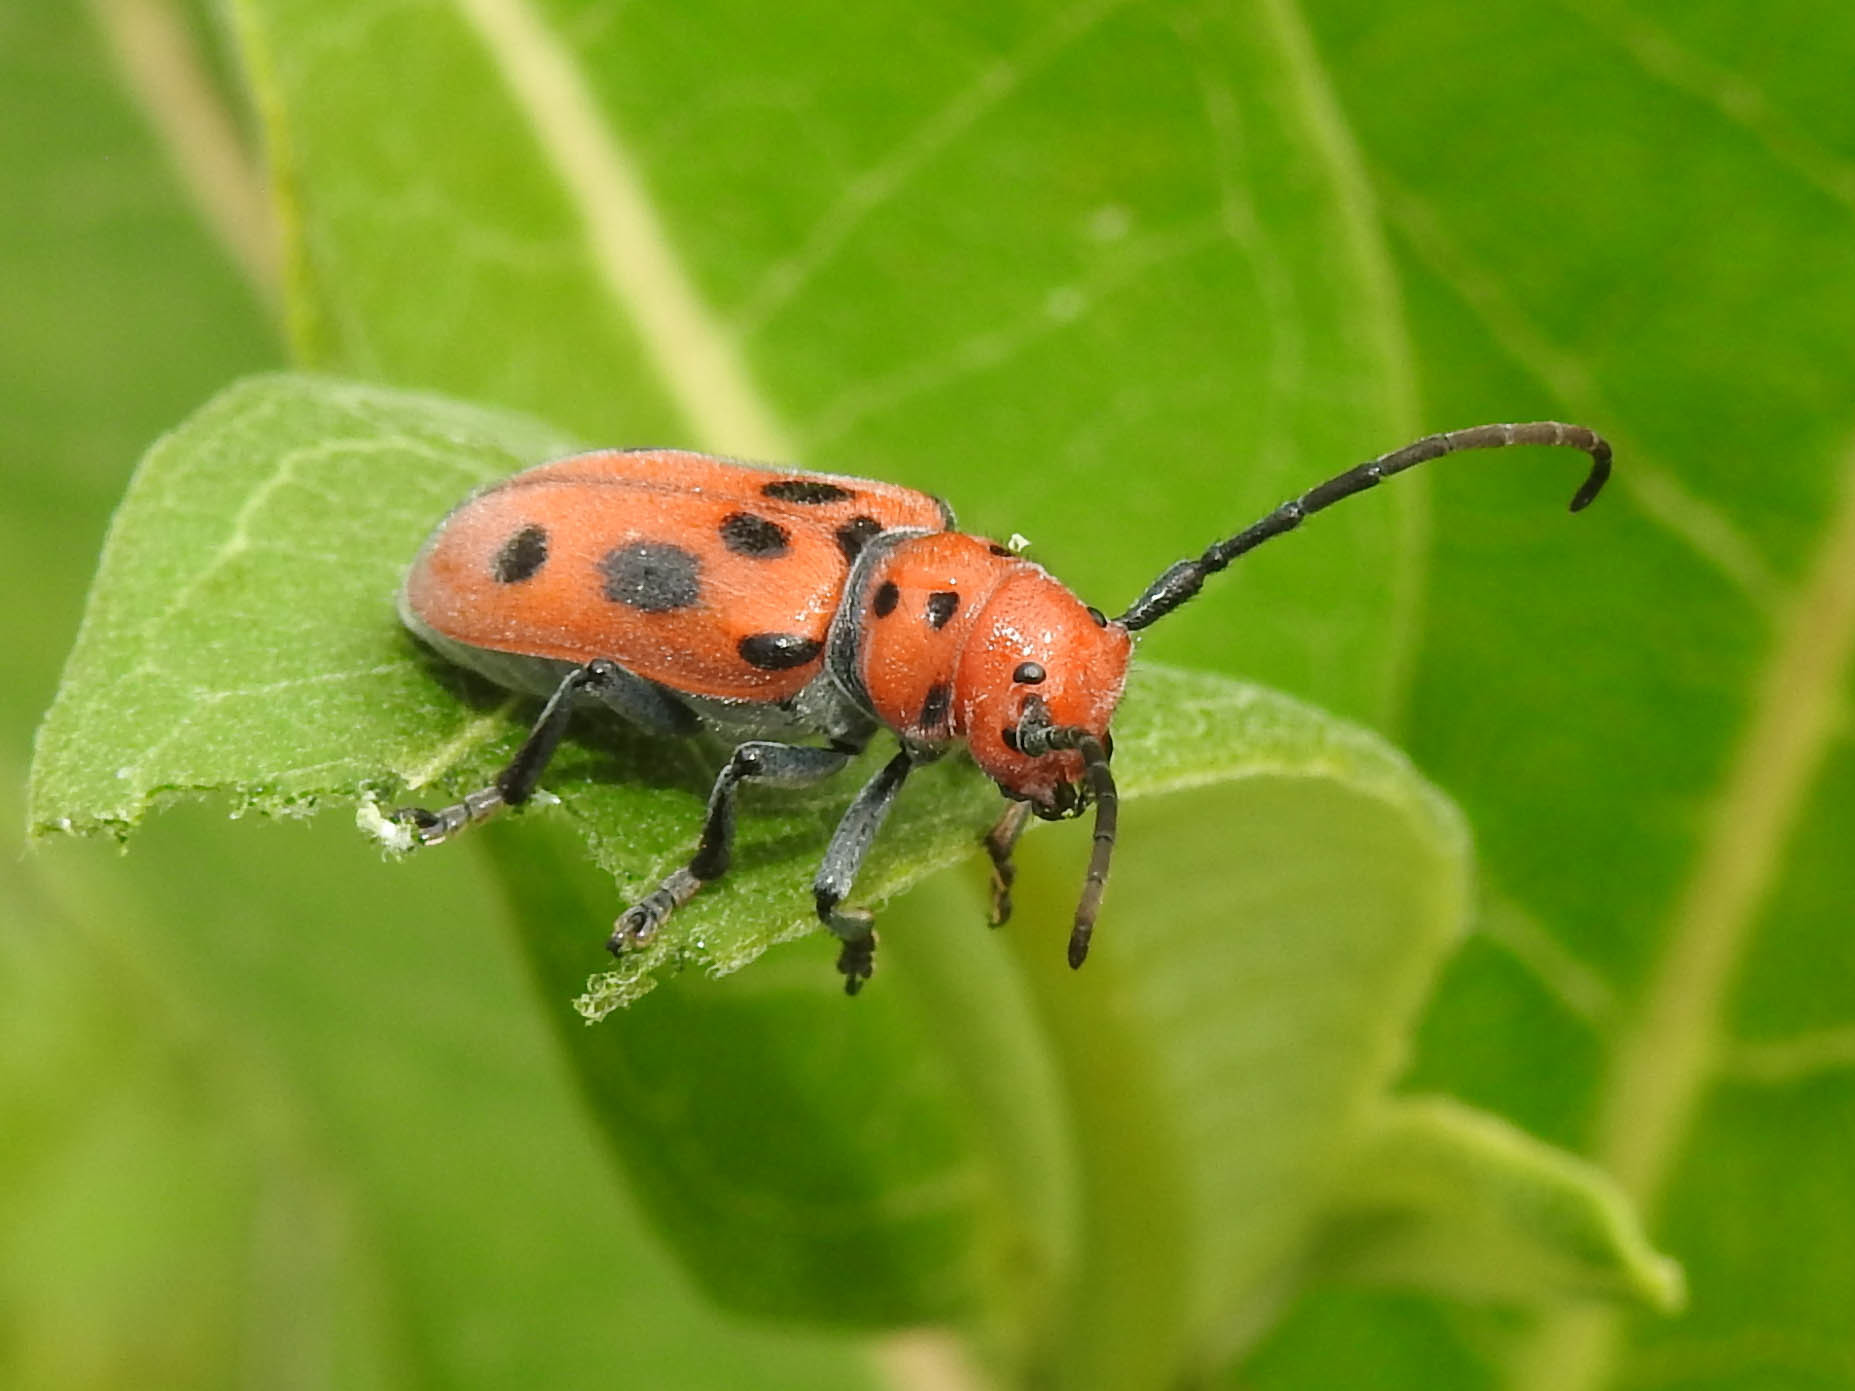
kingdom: Animalia
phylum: Arthropoda
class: Insecta
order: Coleoptera
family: Cerambycidae
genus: Tetraopes
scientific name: Tetraopes tetrophthalmus
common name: Red milkweed beetle
